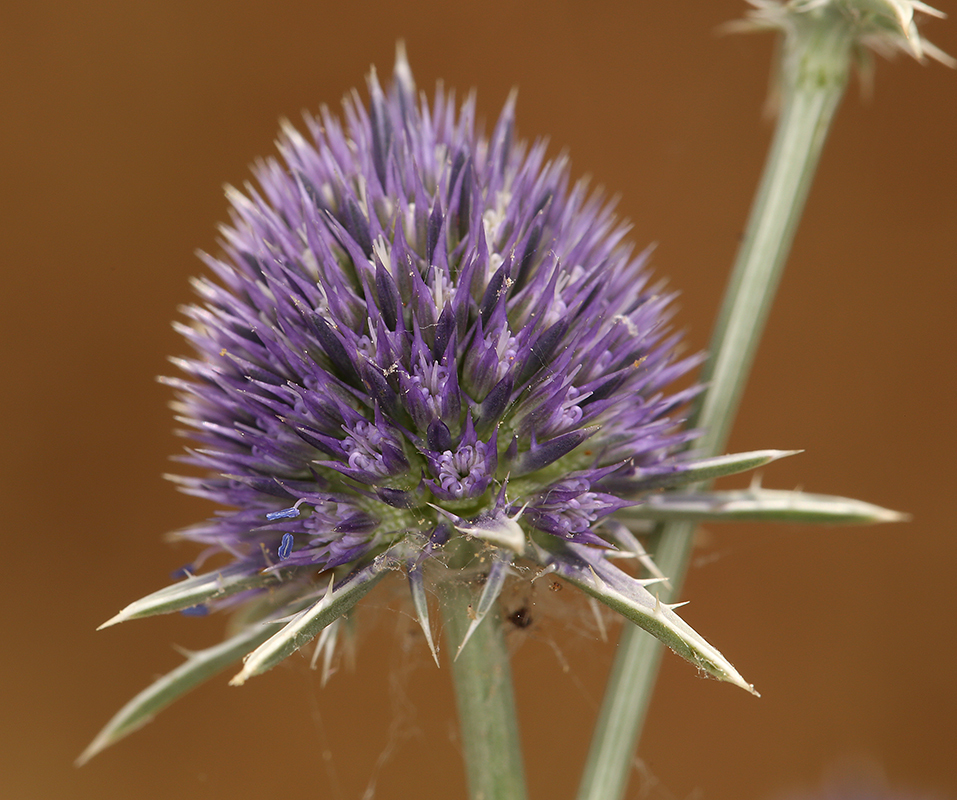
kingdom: Plantae
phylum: Tracheophyta
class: Magnoliopsida
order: Apiales
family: Apiaceae
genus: Eryngium
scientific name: Eryngium articulatum
